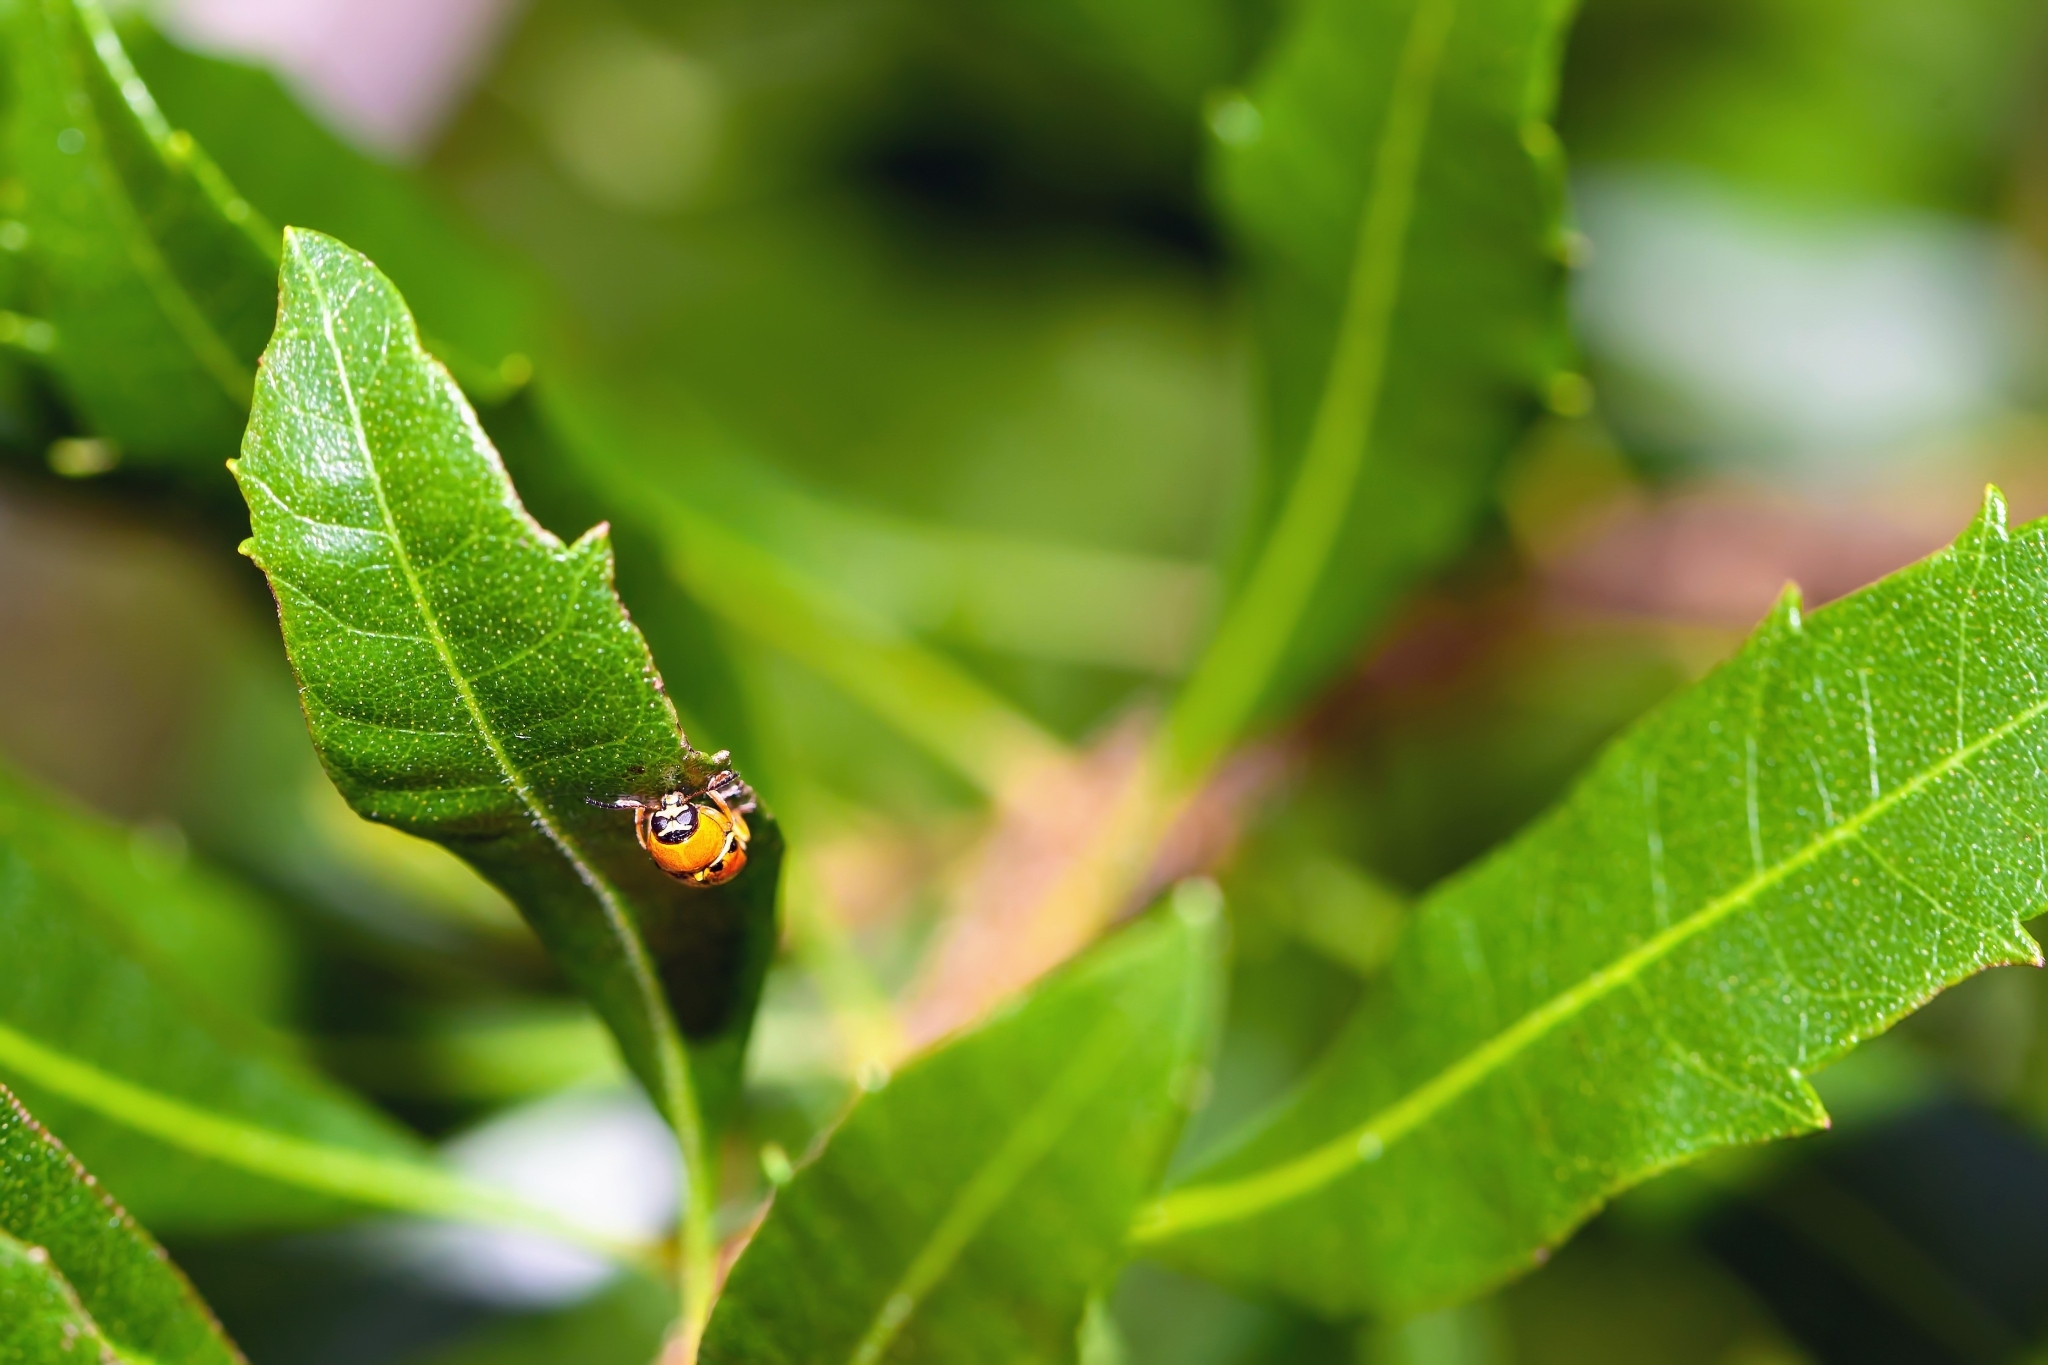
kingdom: Animalia
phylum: Arthropoda
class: Insecta
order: Coleoptera
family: Chrysomelidae
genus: Griburius
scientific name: Griburius larvatus
